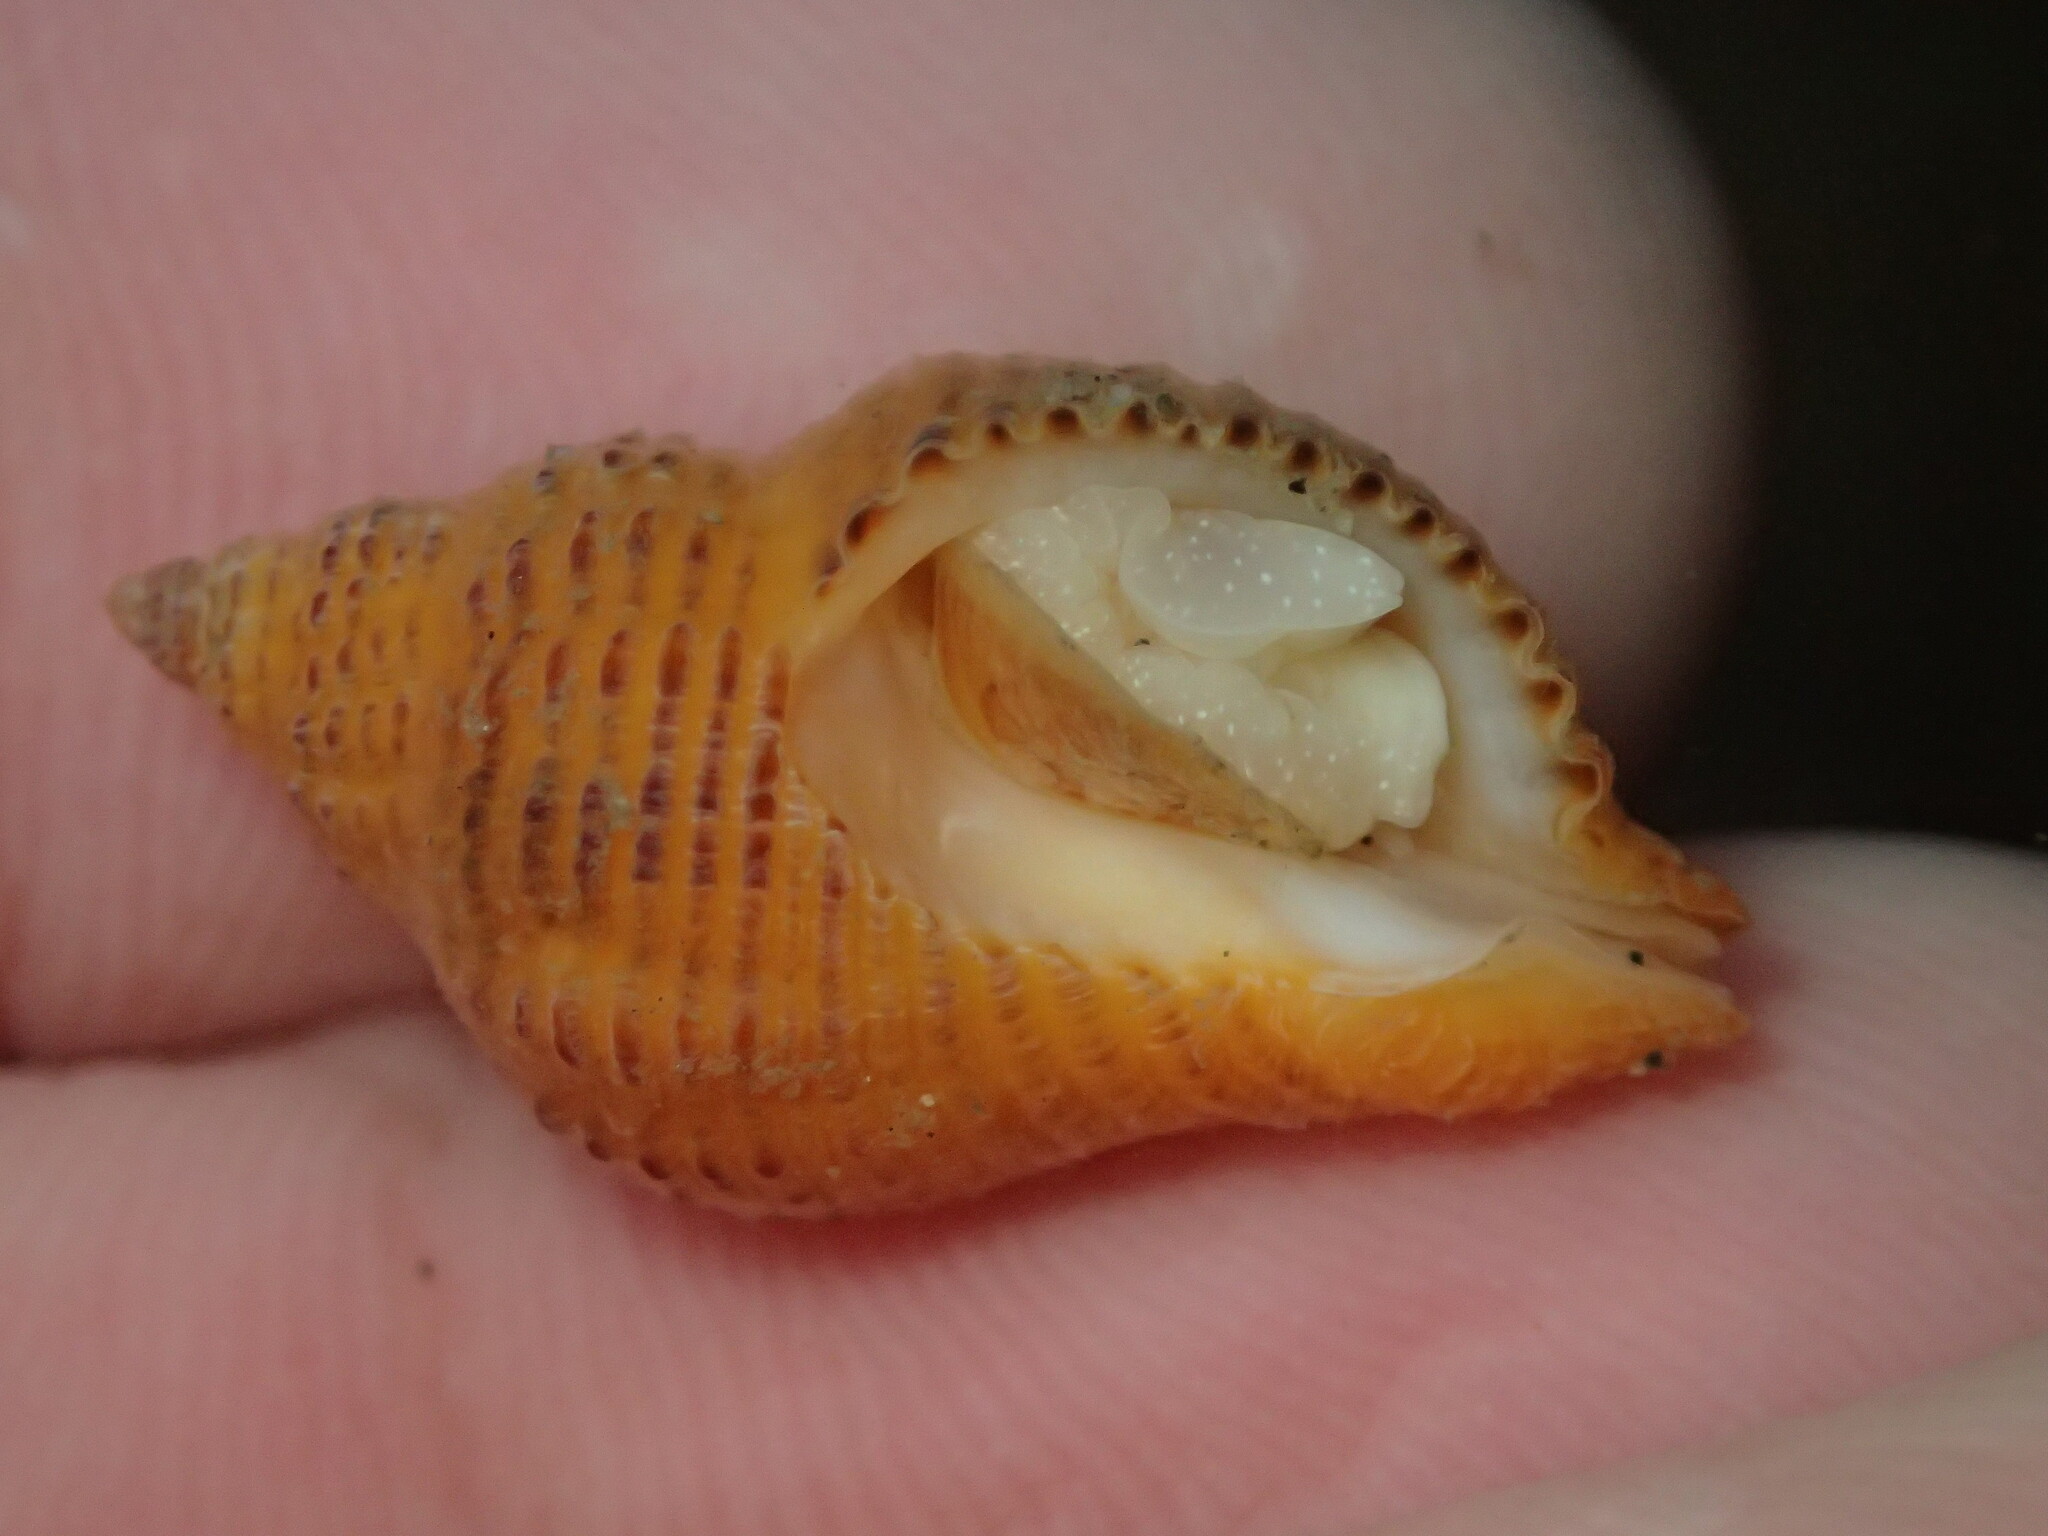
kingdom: Animalia
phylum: Mollusca
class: Gastropoda
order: Neogastropoda
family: Muricidae
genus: Paciocinebrina
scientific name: Paciocinebrina lurida
